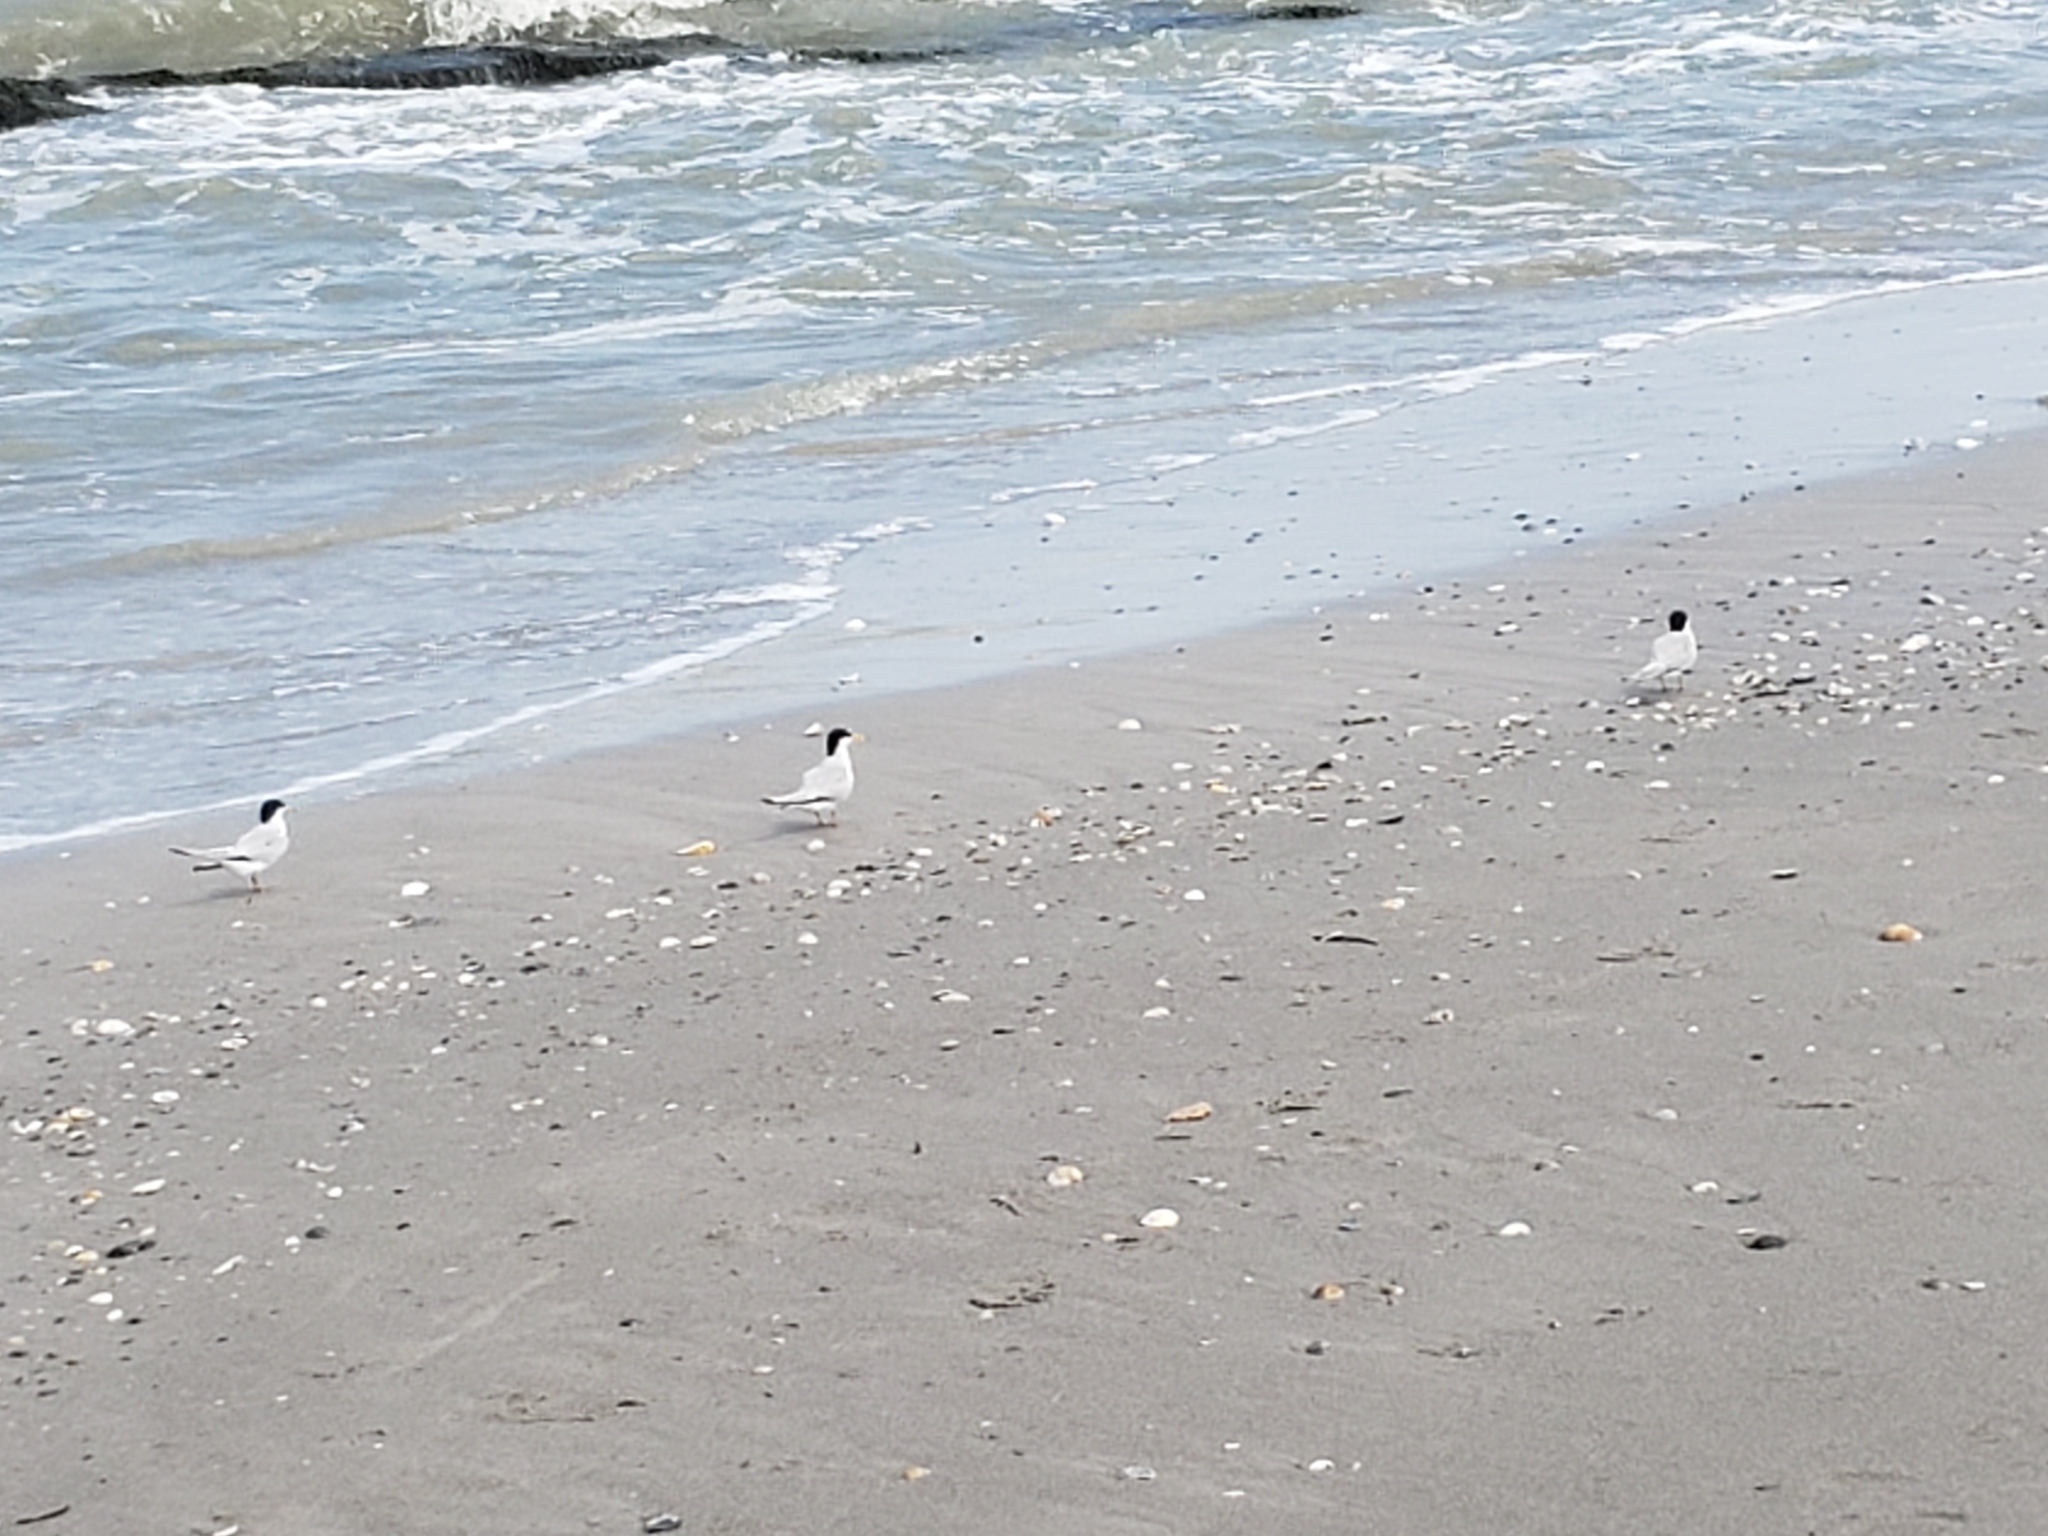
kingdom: Animalia
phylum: Chordata
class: Aves
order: Charadriiformes
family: Laridae
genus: Sternula
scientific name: Sternula antillarum
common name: Least tern
